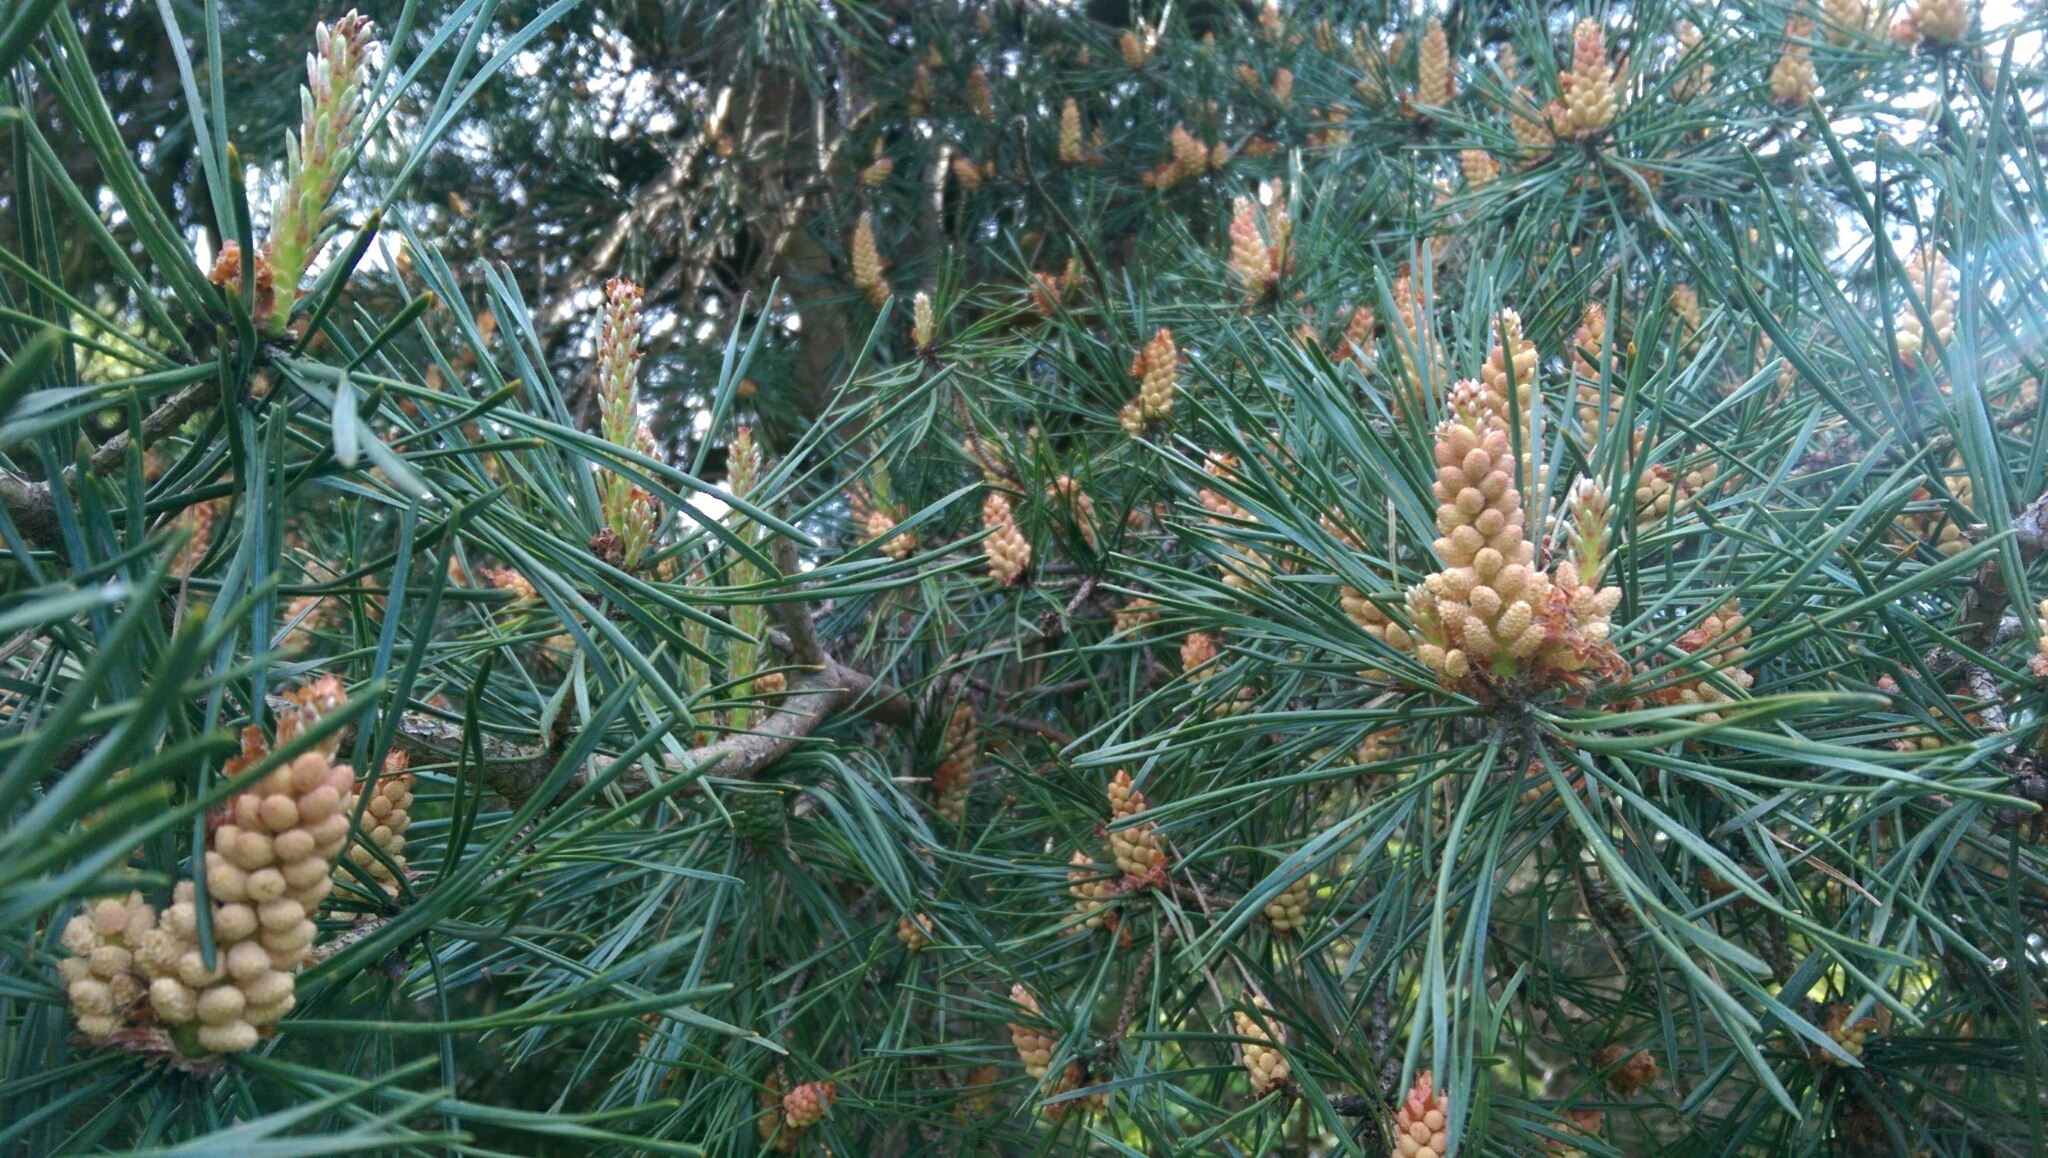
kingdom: Plantae
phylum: Tracheophyta
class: Pinopsida
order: Pinales
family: Pinaceae
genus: Pinus
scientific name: Pinus sylvestris
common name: Scots pine
